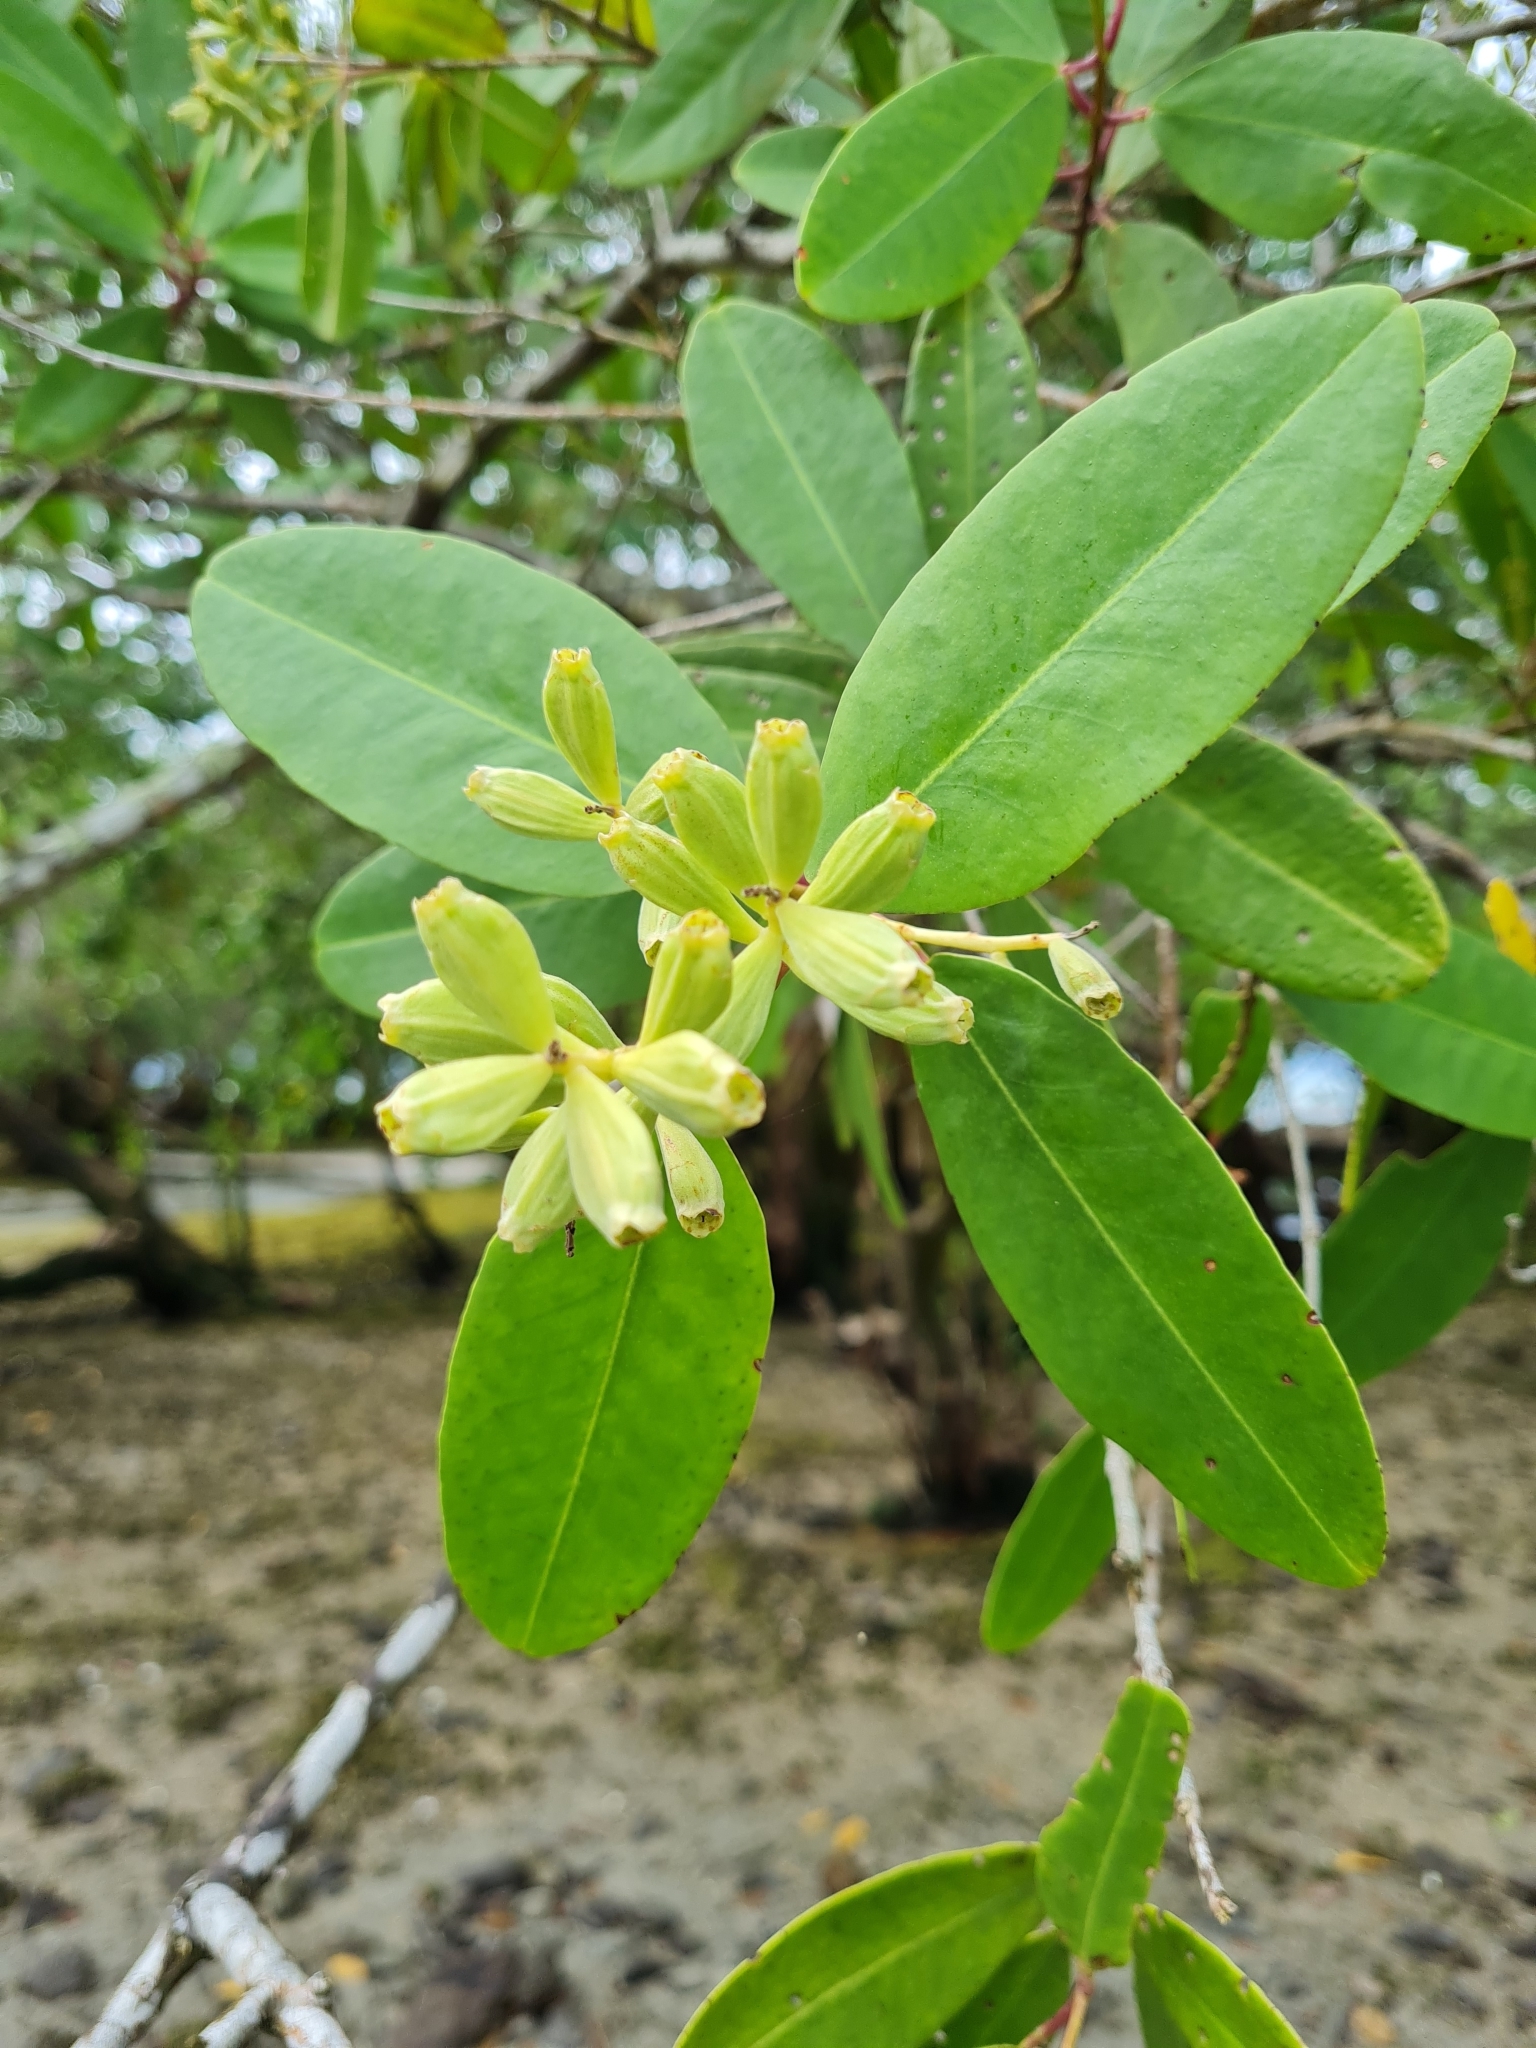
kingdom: Plantae
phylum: Tracheophyta
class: Magnoliopsida
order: Myrtales
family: Combretaceae
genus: Laguncularia
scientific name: Laguncularia racemosa
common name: White mangrove
